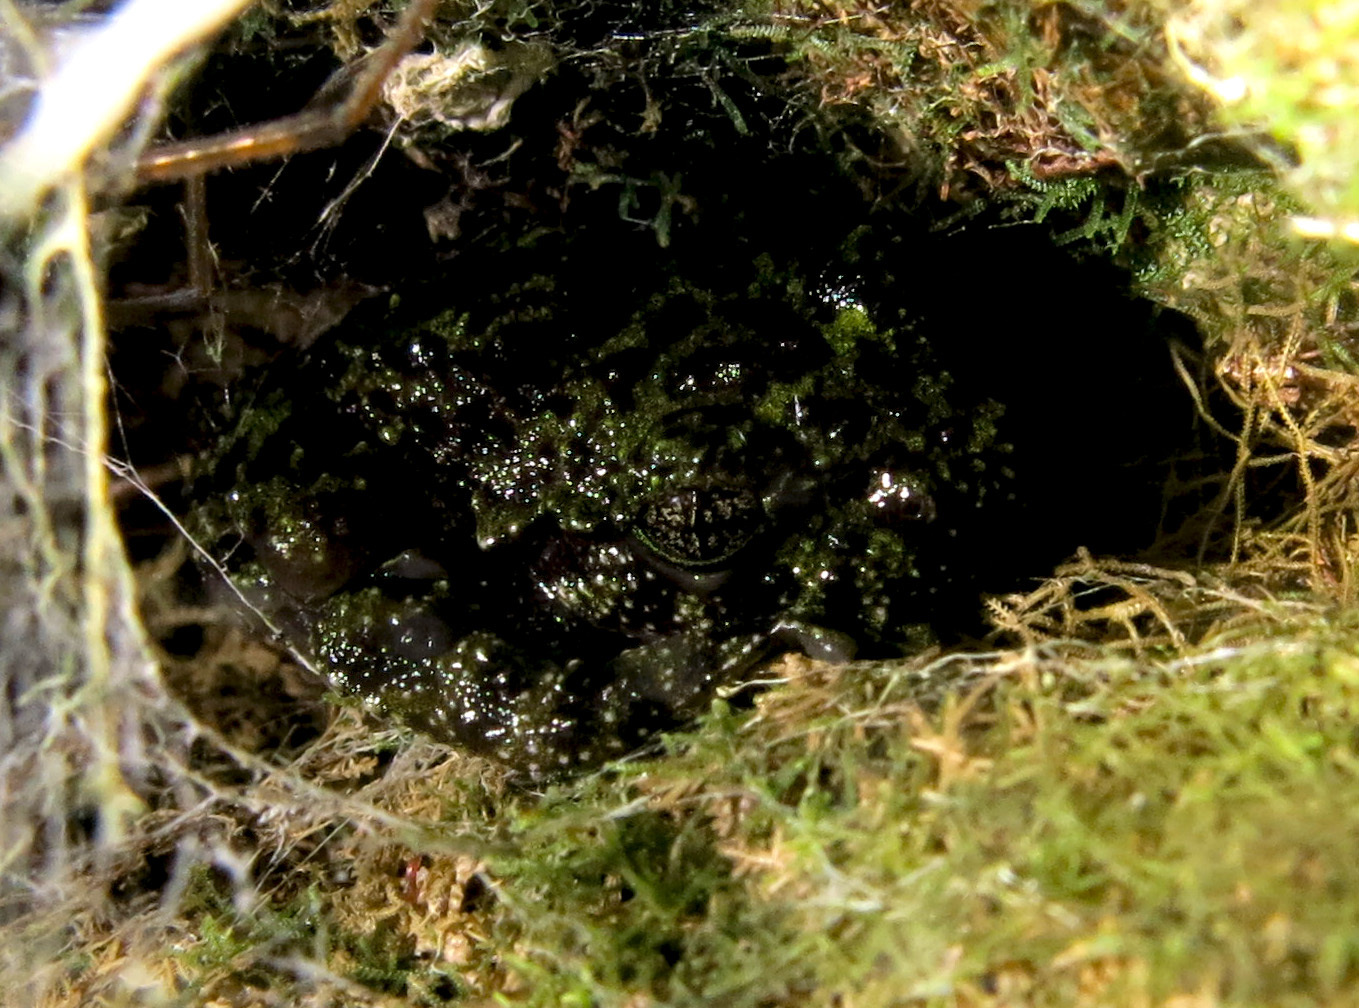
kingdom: Animalia
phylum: Chordata
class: Amphibia
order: Anura
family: Heleophrynidae
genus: Heleophryne
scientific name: Heleophryne rosei
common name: Table mountain ghost frog
